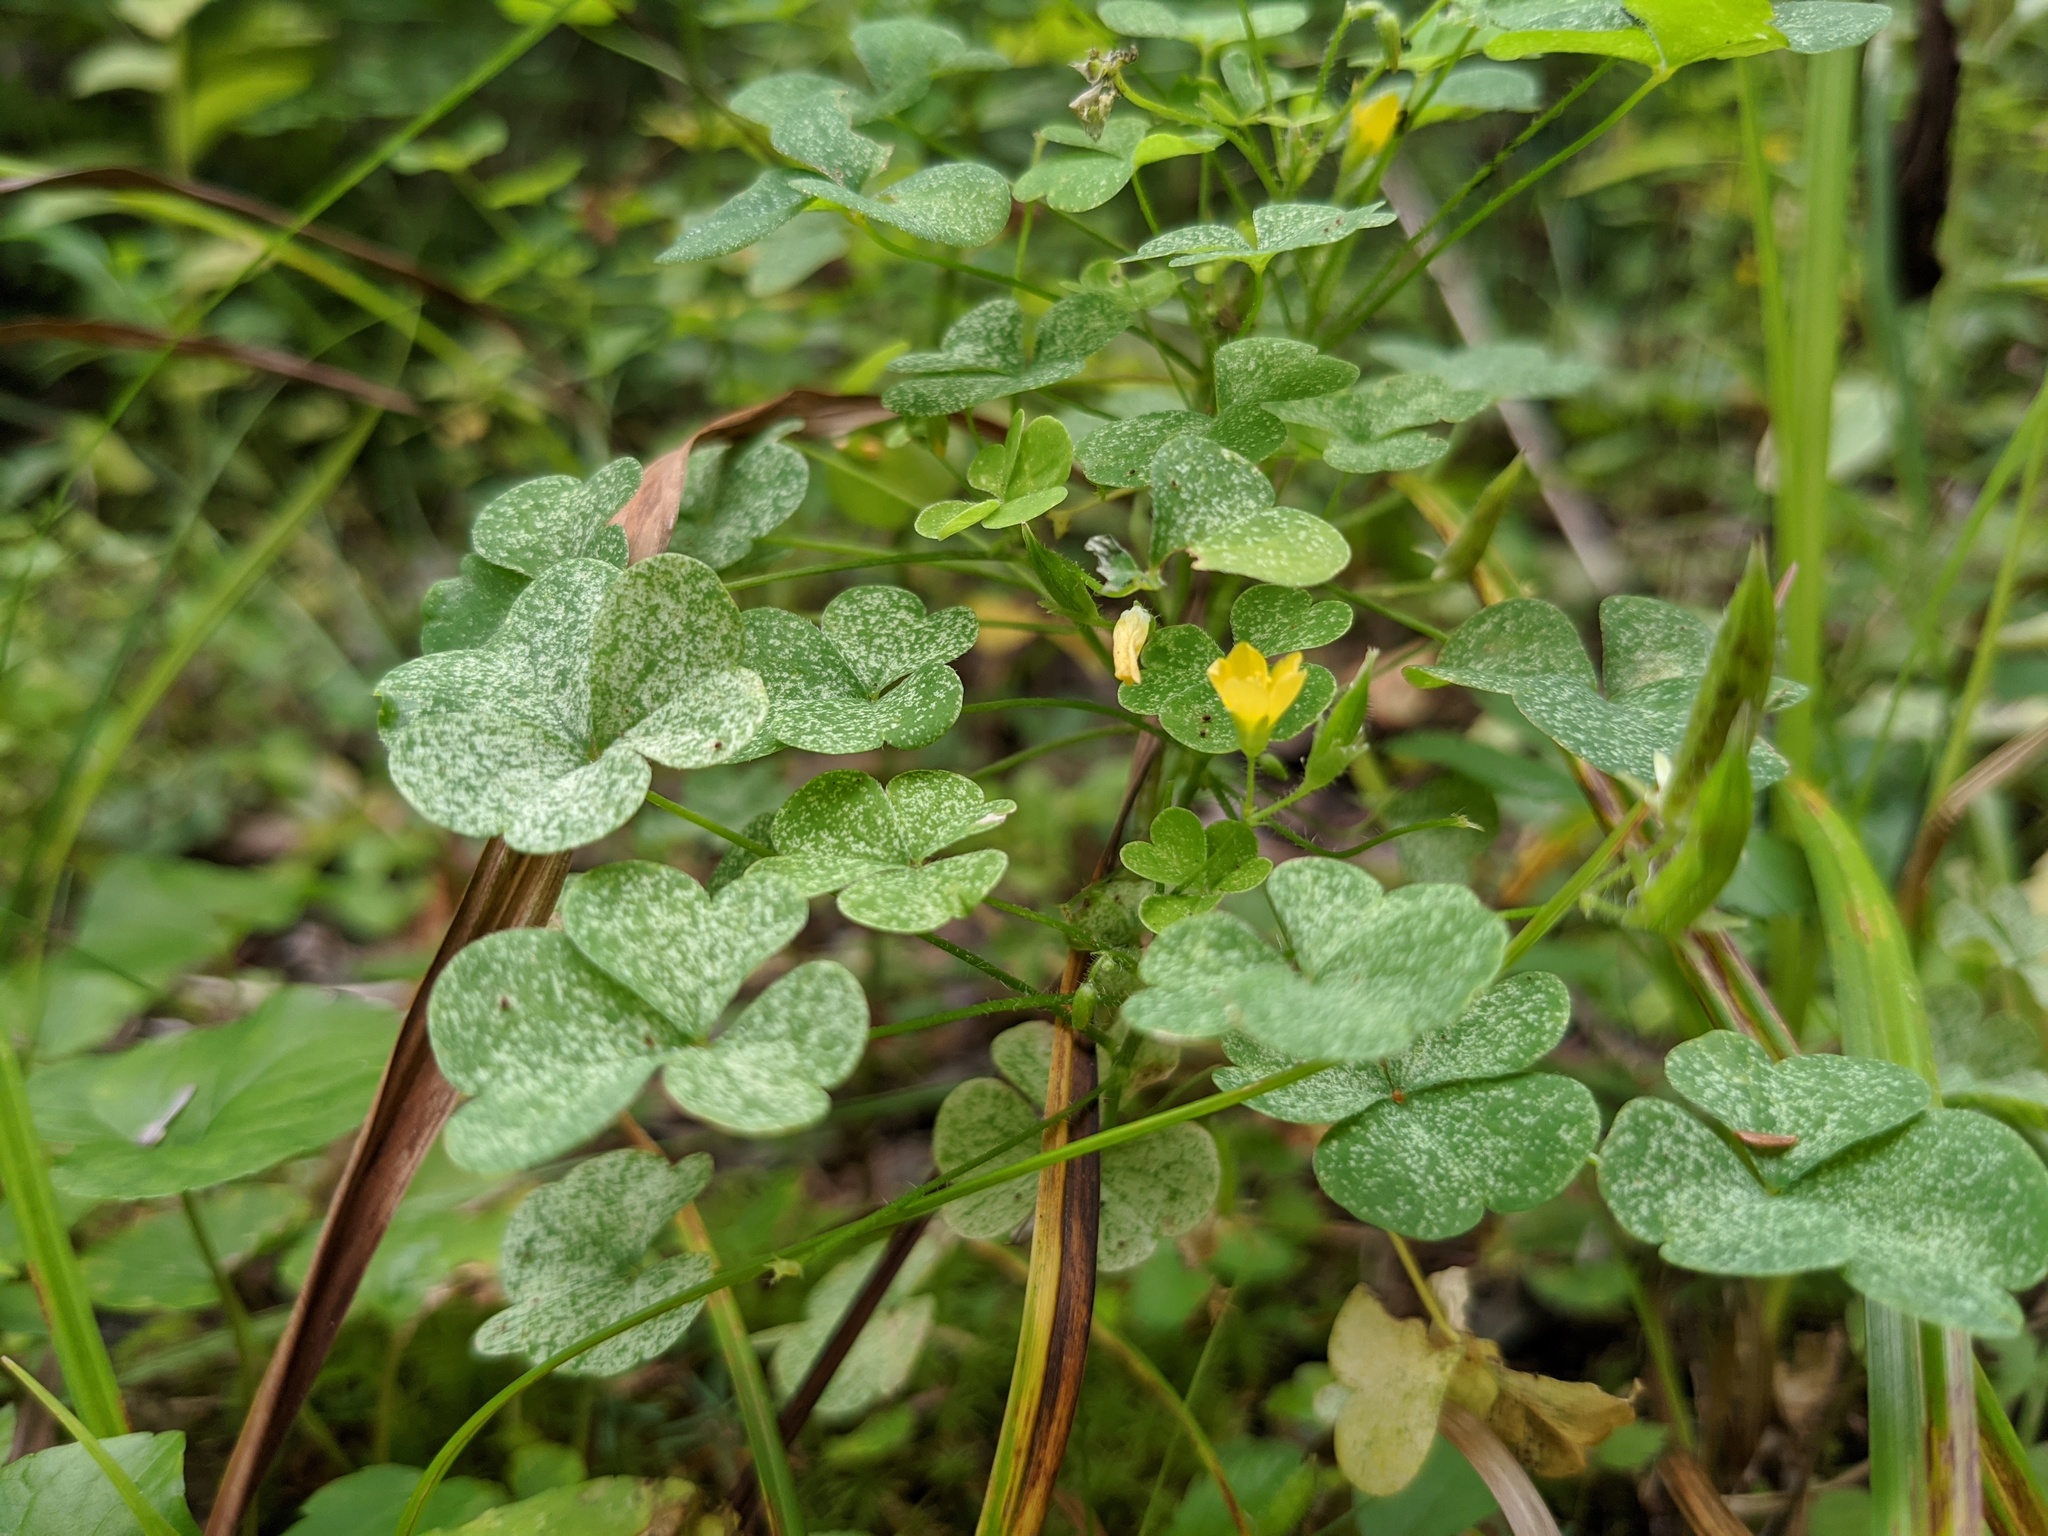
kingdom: Plantae
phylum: Tracheophyta
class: Magnoliopsida
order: Oxalidales
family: Oxalidaceae
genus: Oxalis
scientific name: Oxalis stricta
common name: Upright yellow-sorrel
